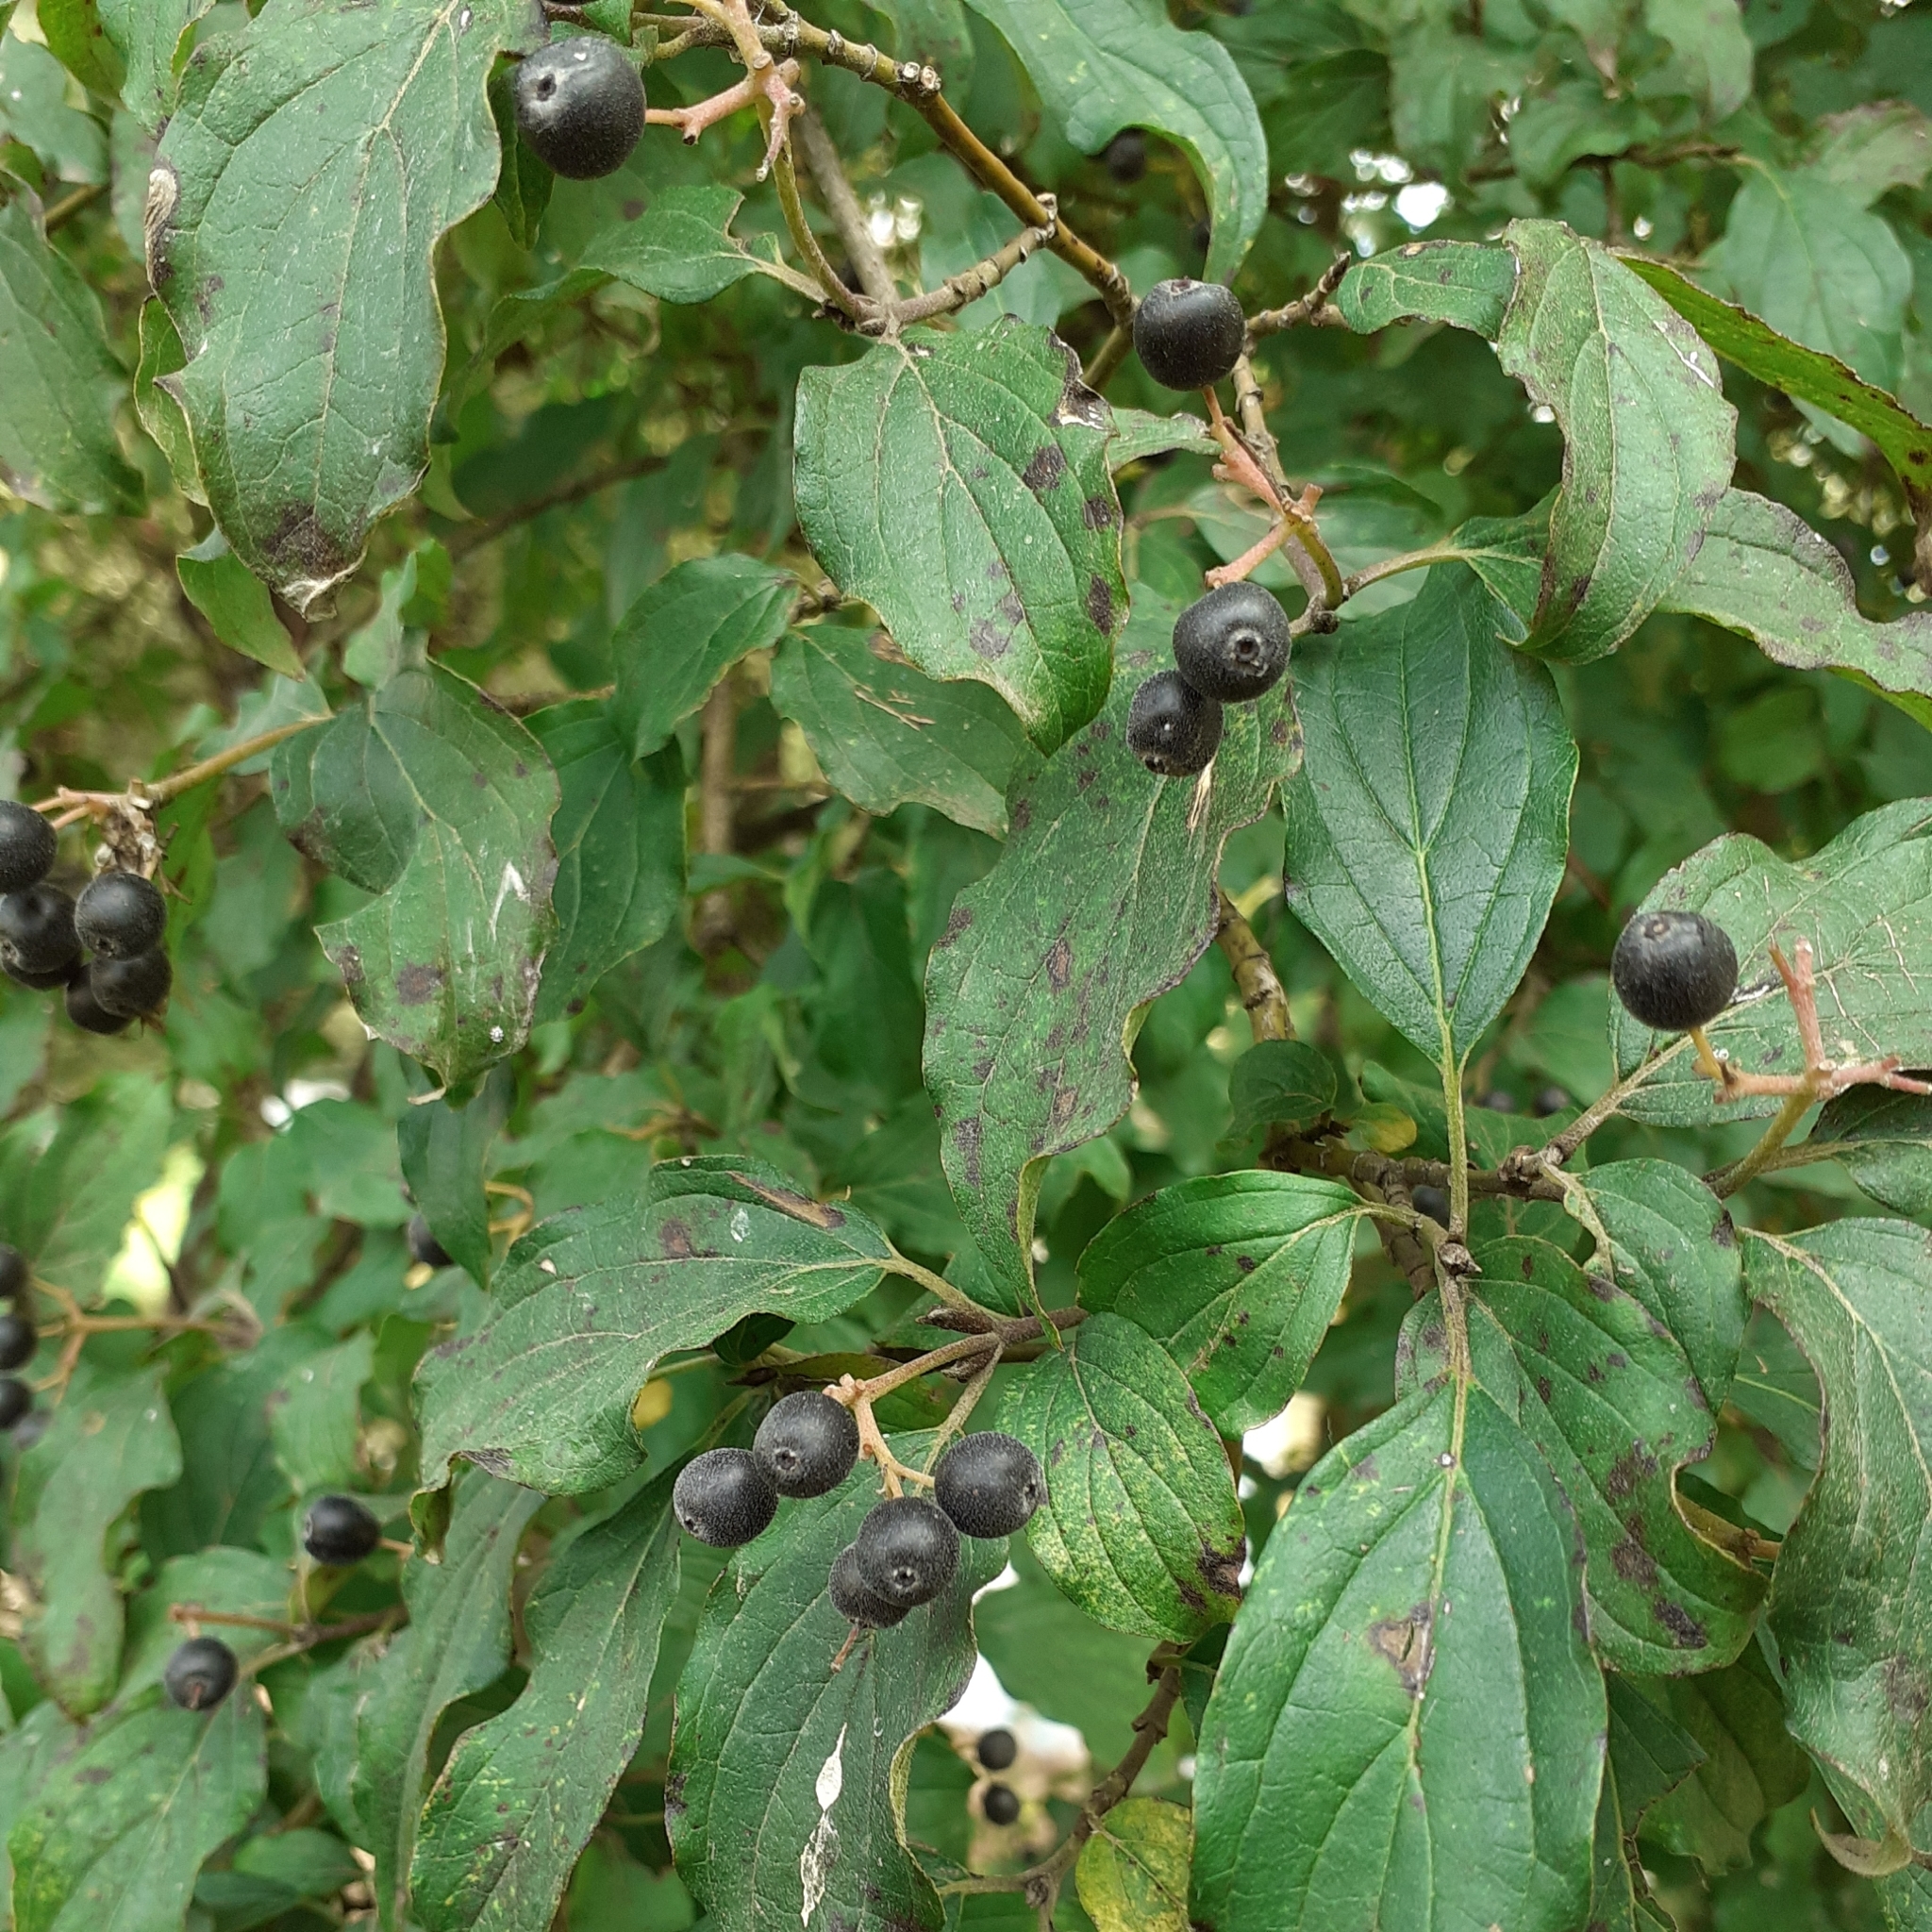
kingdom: Plantae
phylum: Tracheophyta
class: Magnoliopsida
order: Cornales
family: Cornaceae
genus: Cornus
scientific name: Cornus sanguinea
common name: Dogwood
